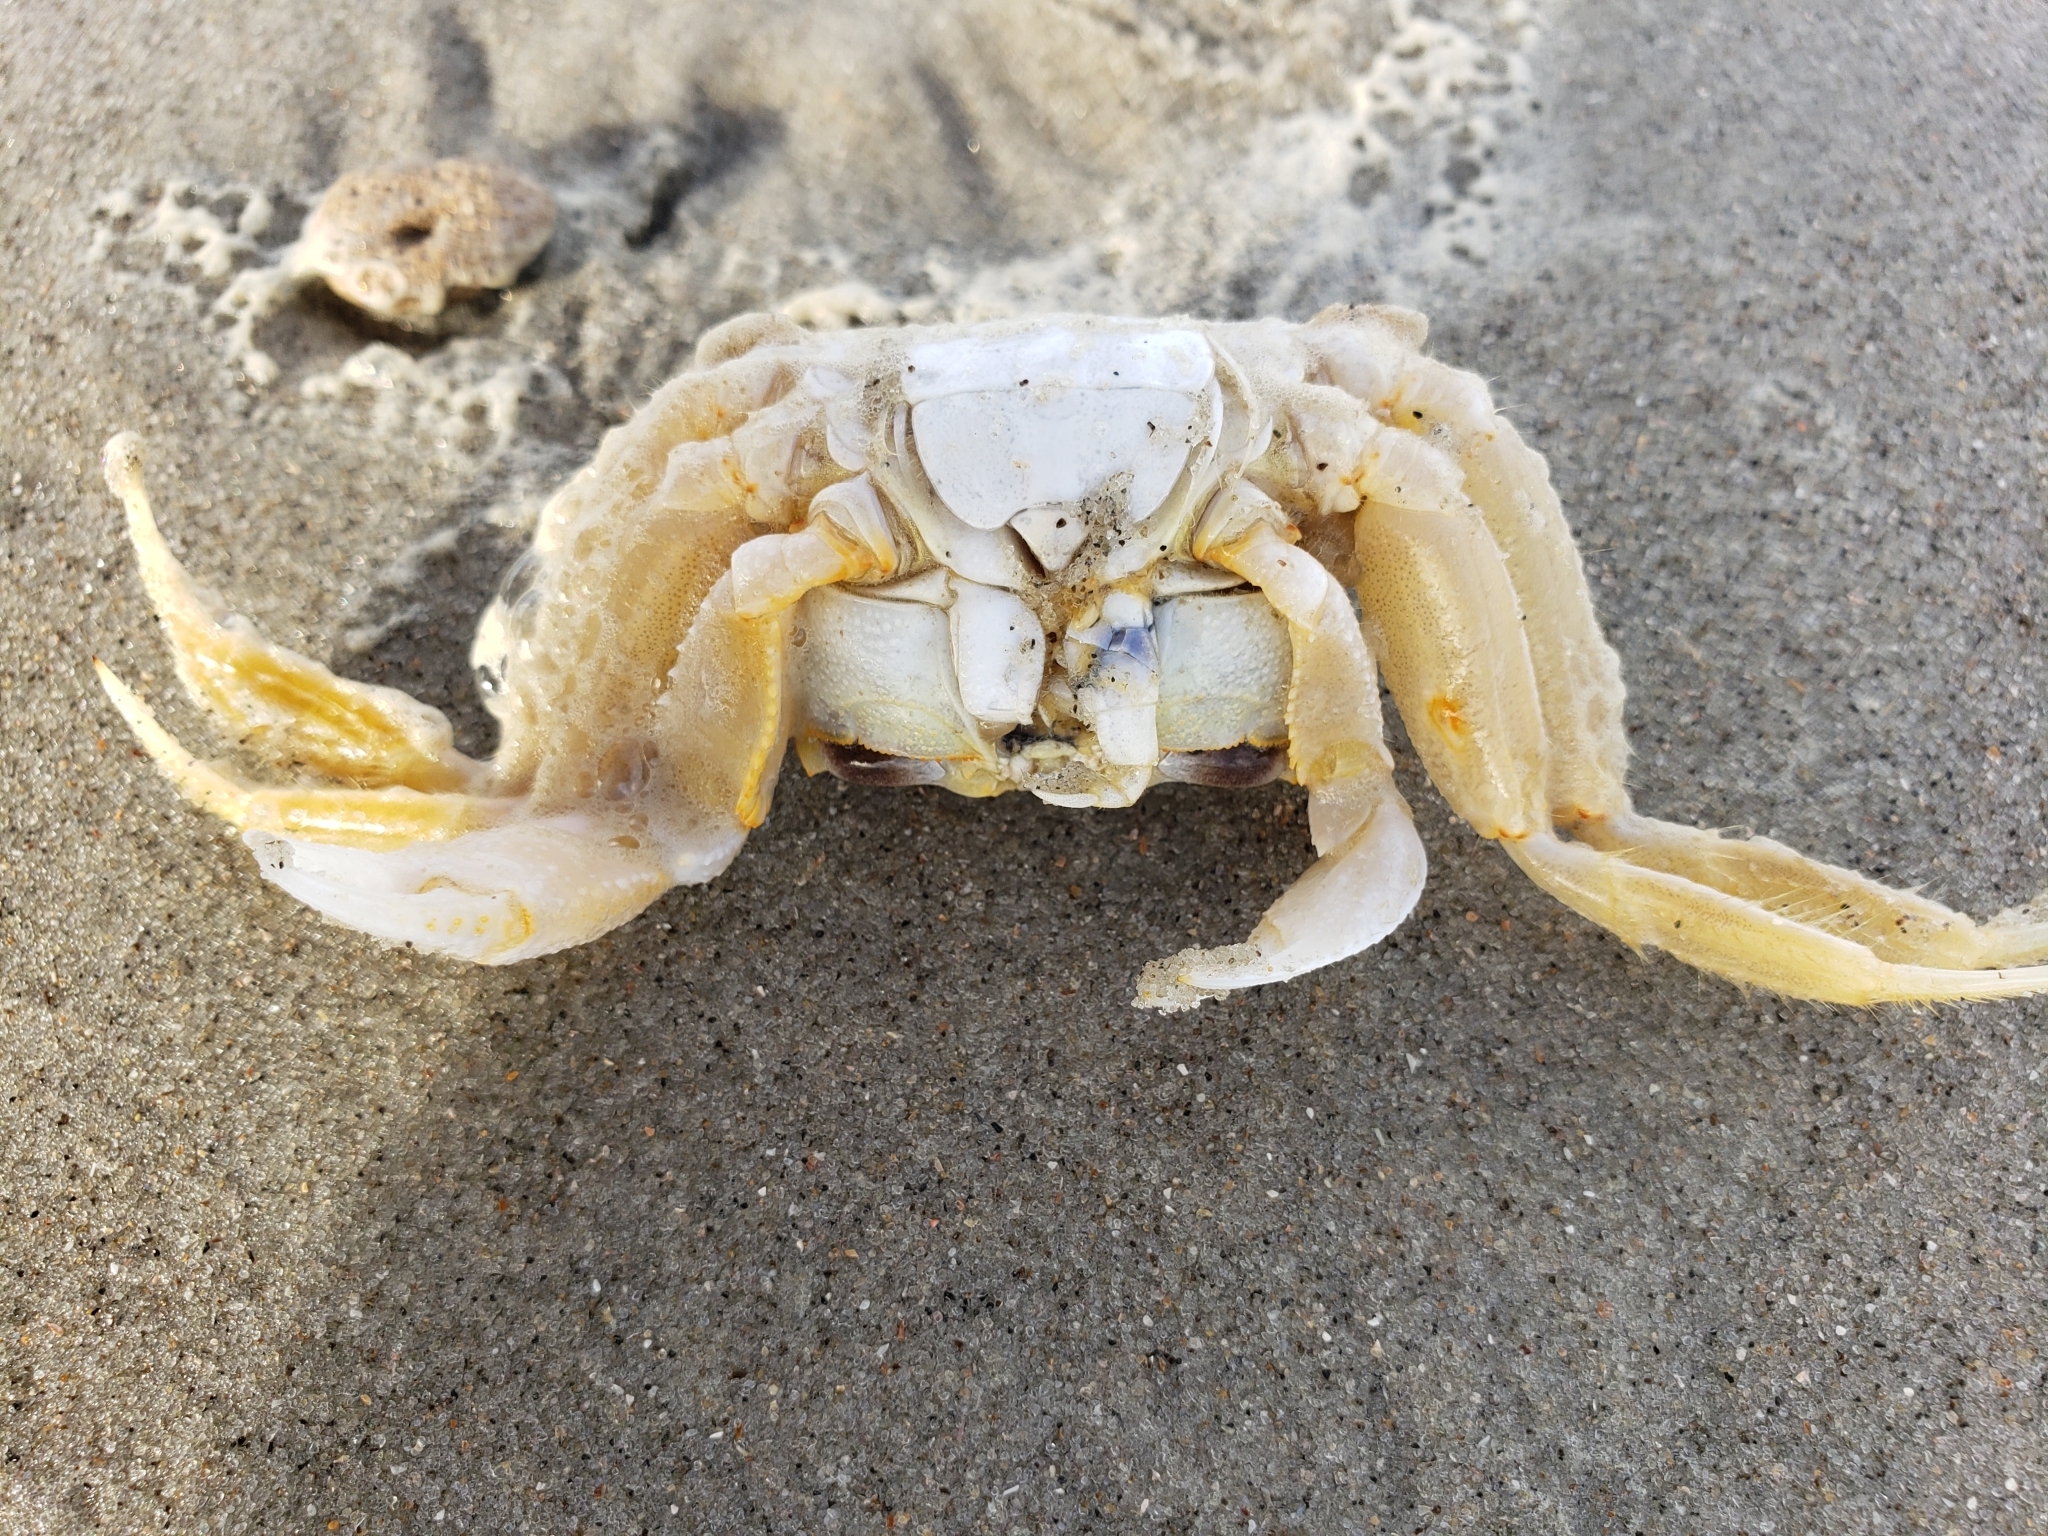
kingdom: Animalia
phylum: Arthropoda
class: Malacostraca
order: Decapoda
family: Ocypodidae
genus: Ocypode
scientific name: Ocypode quadrata
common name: Ghost crab
